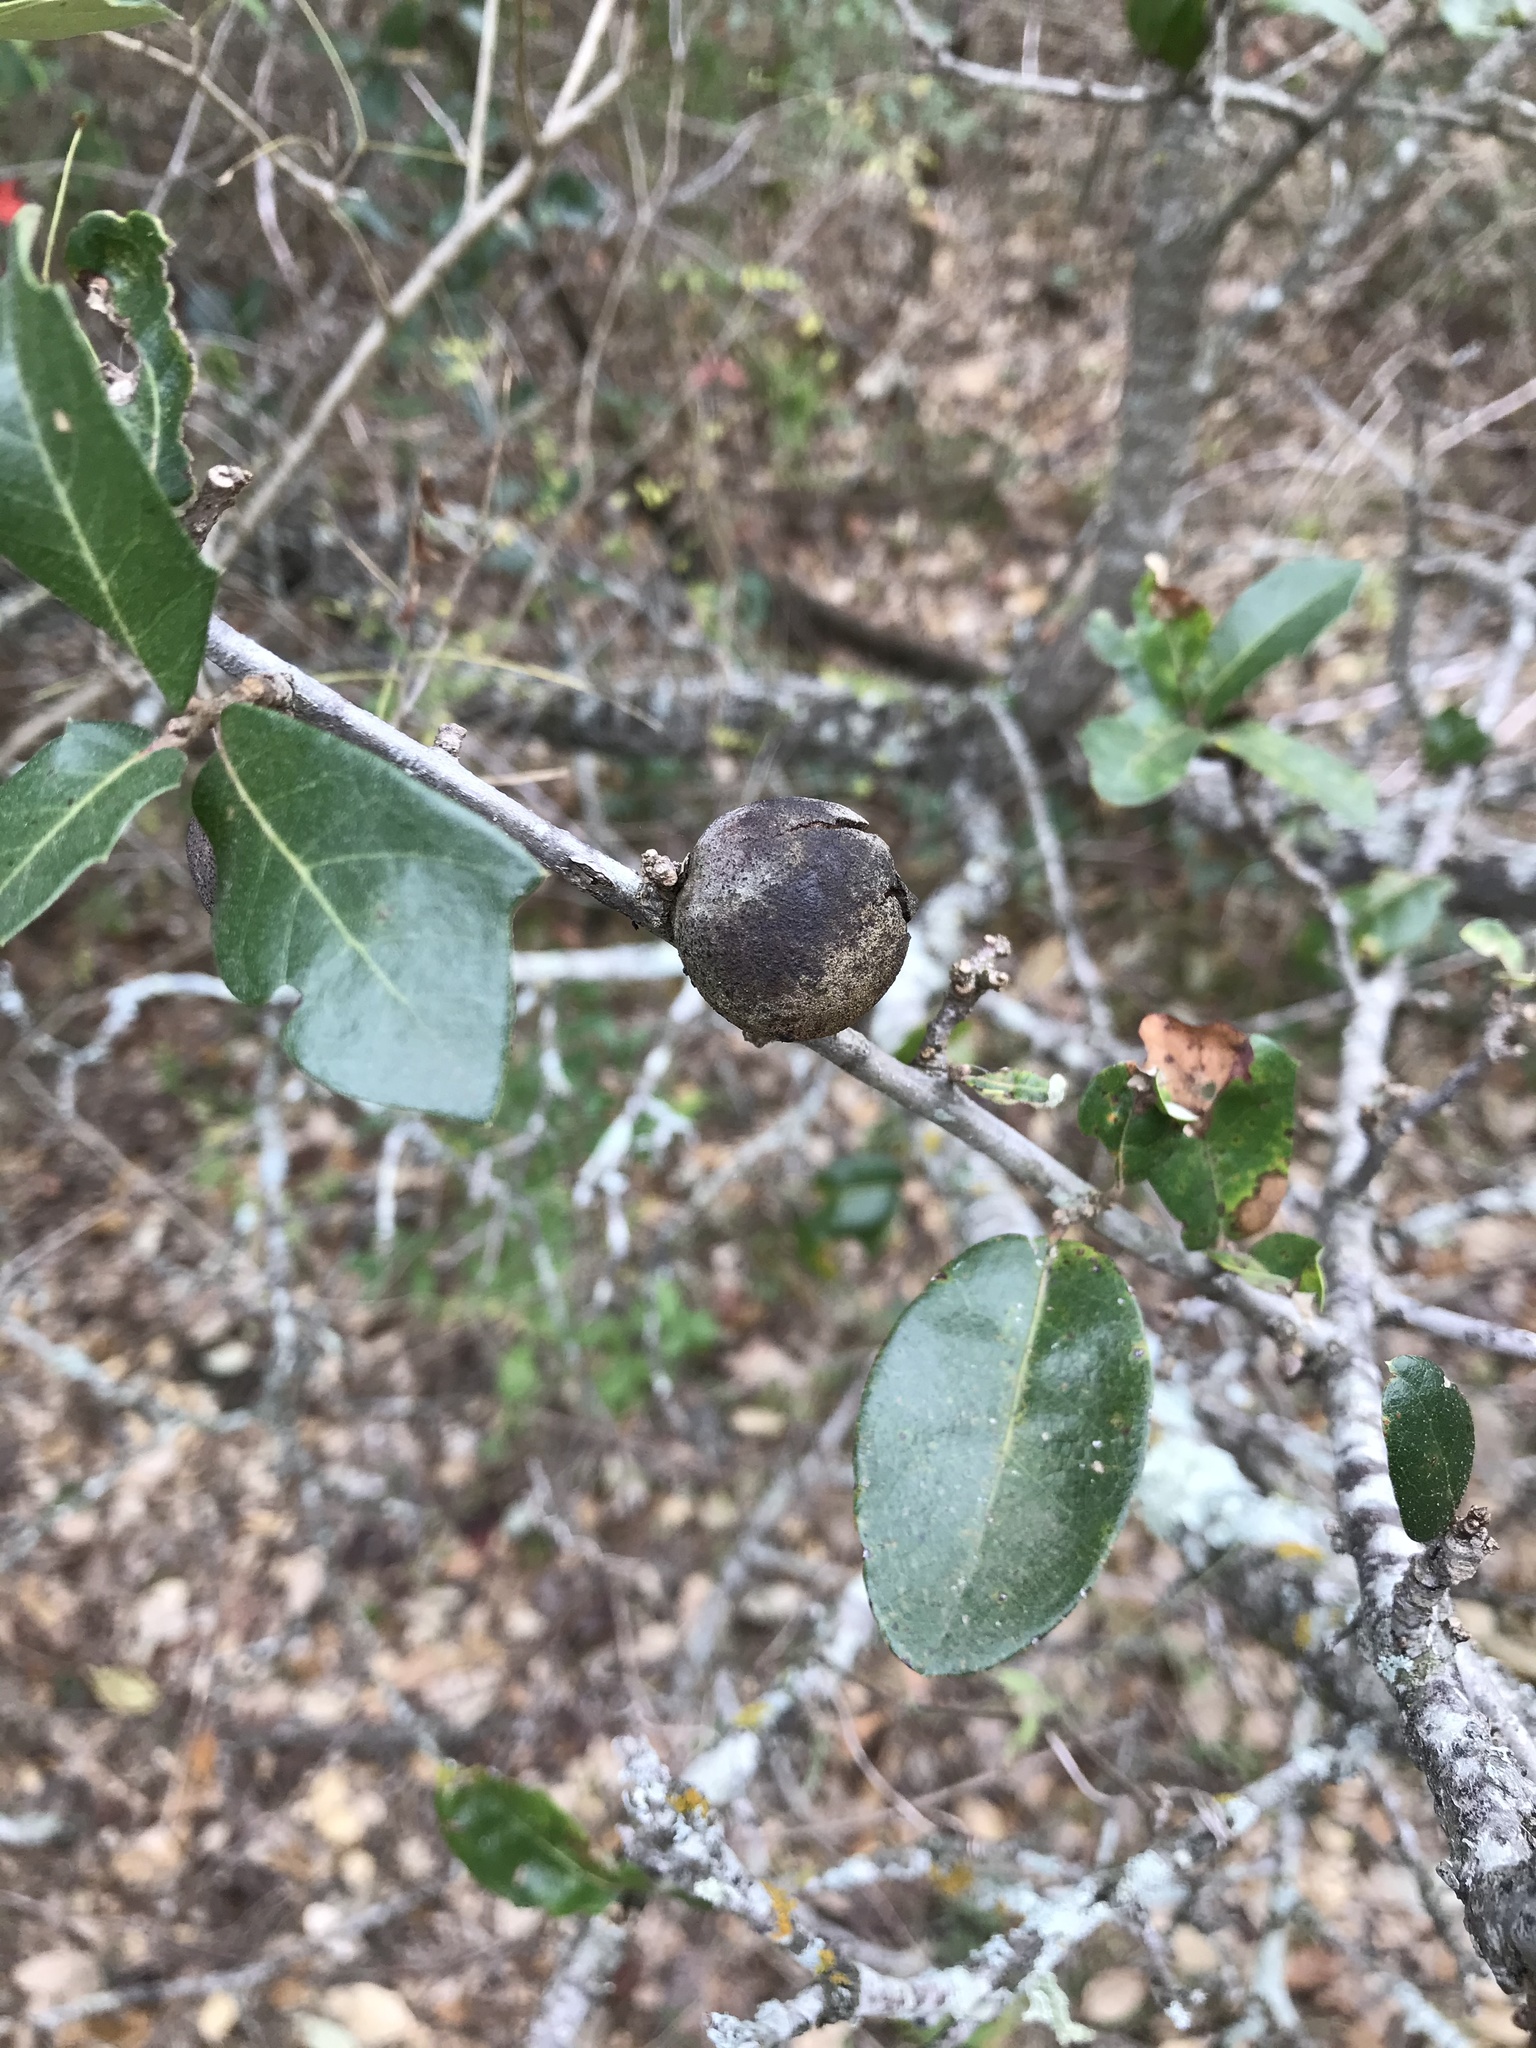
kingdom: Animalia
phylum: Arthropoda
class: Insecta
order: Hymenoptera
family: Cynipidae
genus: Disholcaspis
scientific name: Disholcaspis
